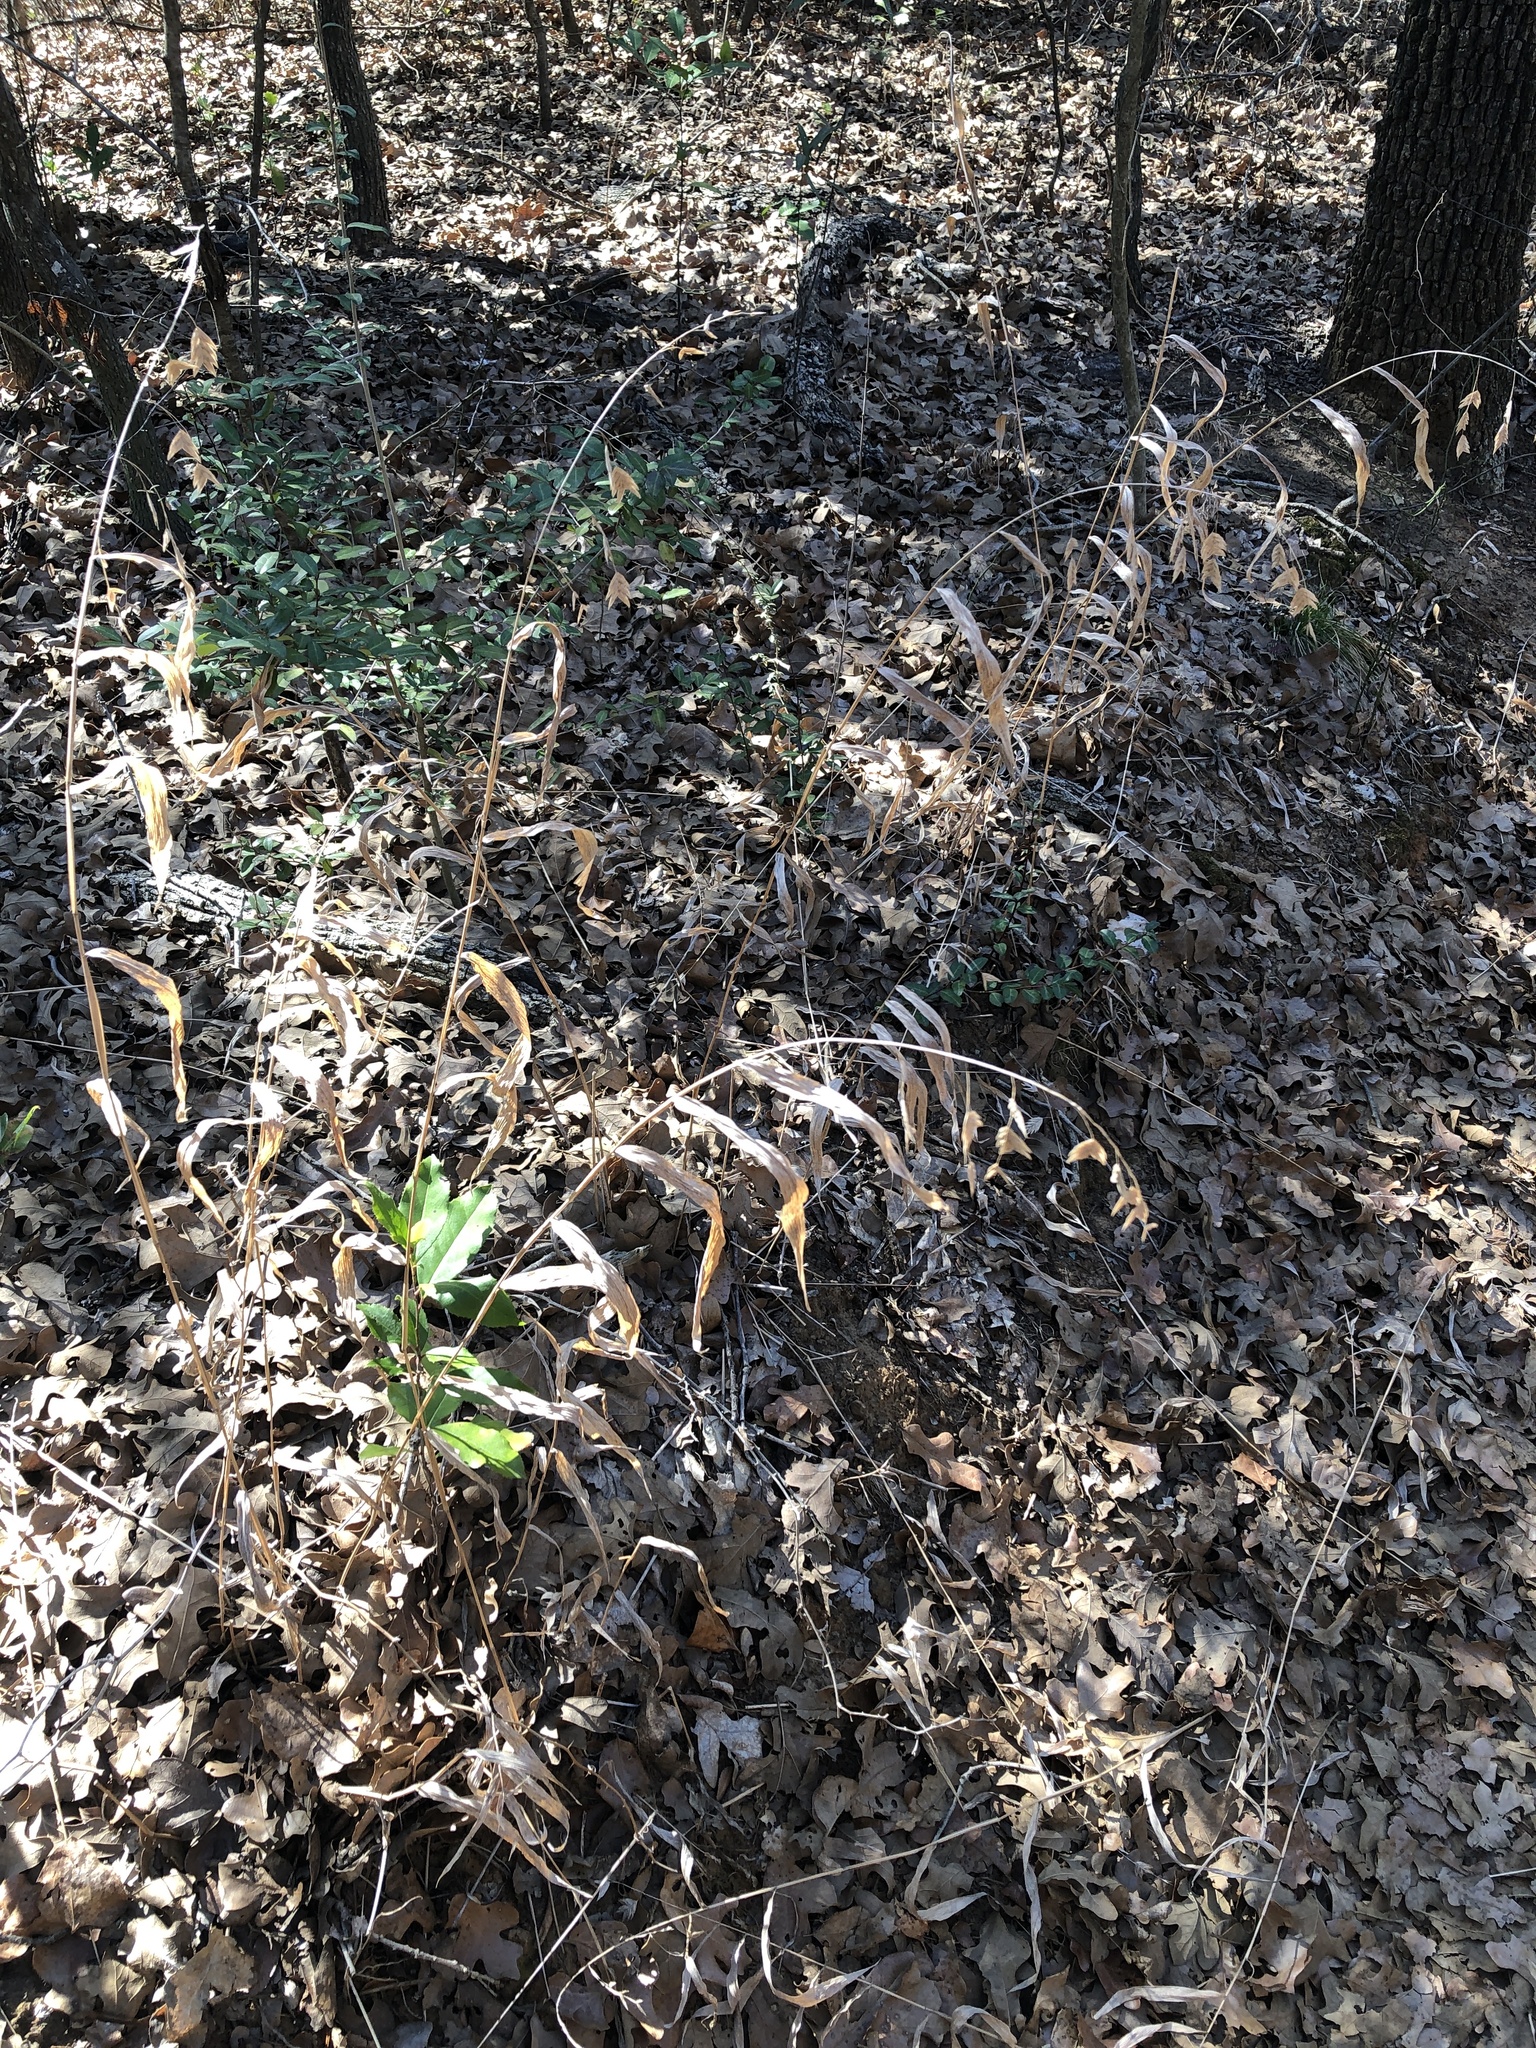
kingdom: Plantae
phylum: Tracheophyta
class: Liliopsida
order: Poales
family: Poaceae
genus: Chasmanthium
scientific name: Chasmanthium latifolium
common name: Broad-leaved chasmanthium
